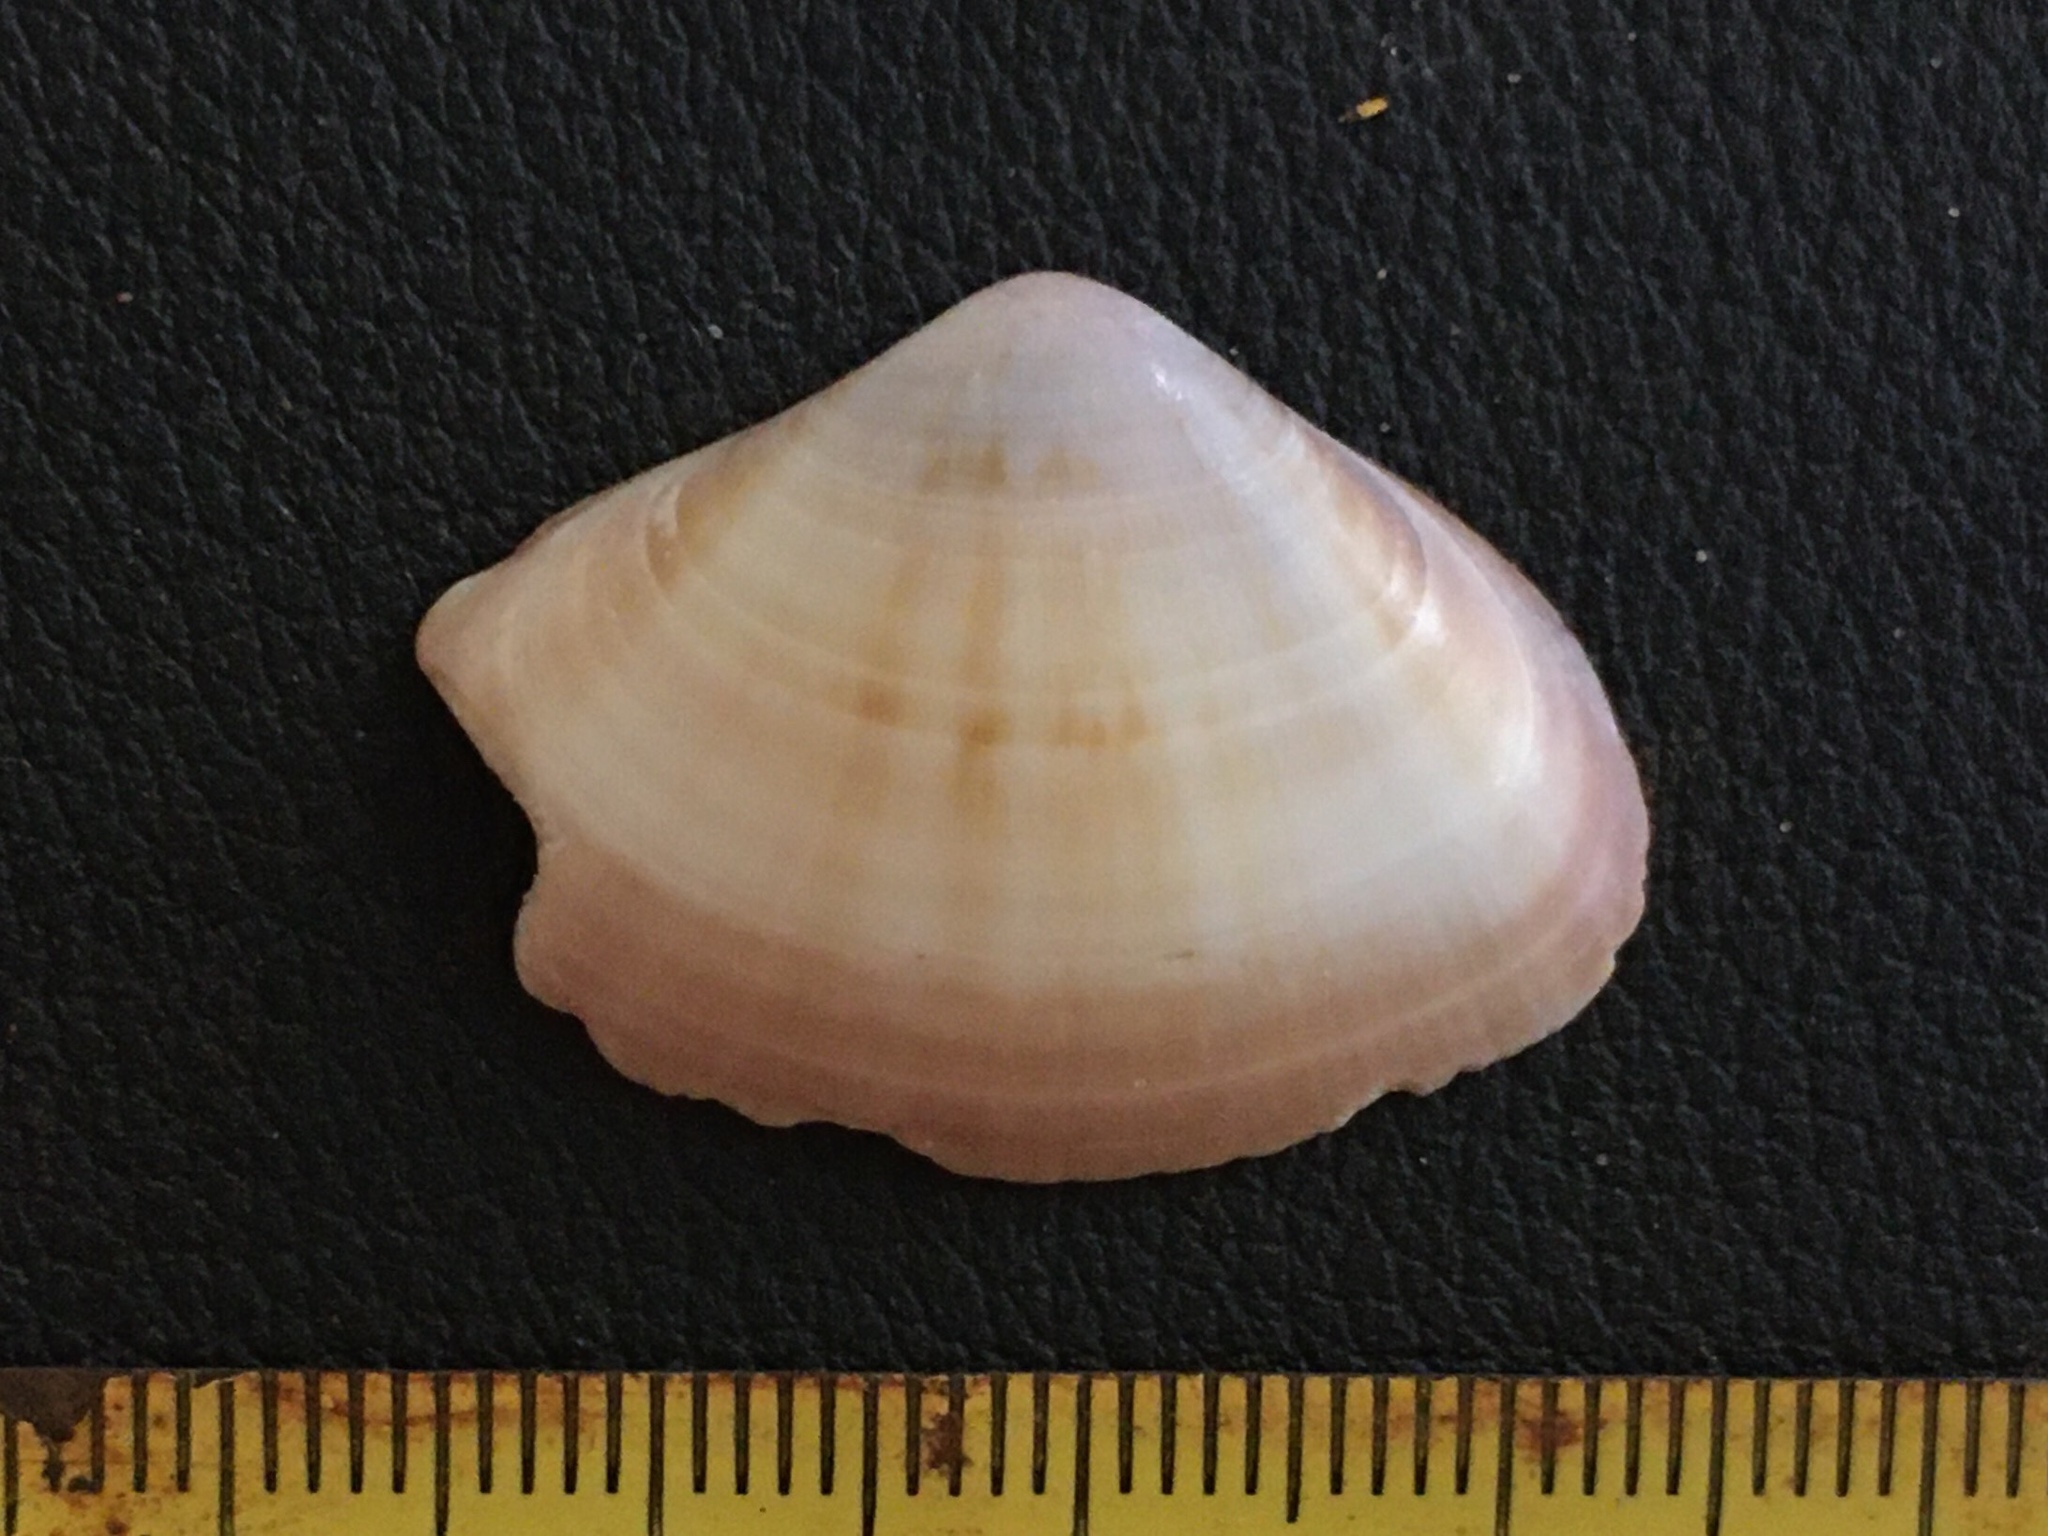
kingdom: Animalia
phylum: Mollusca
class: Bivalvia
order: Venerida
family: Veneridae
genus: Tivela
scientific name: Tivela dentaria
